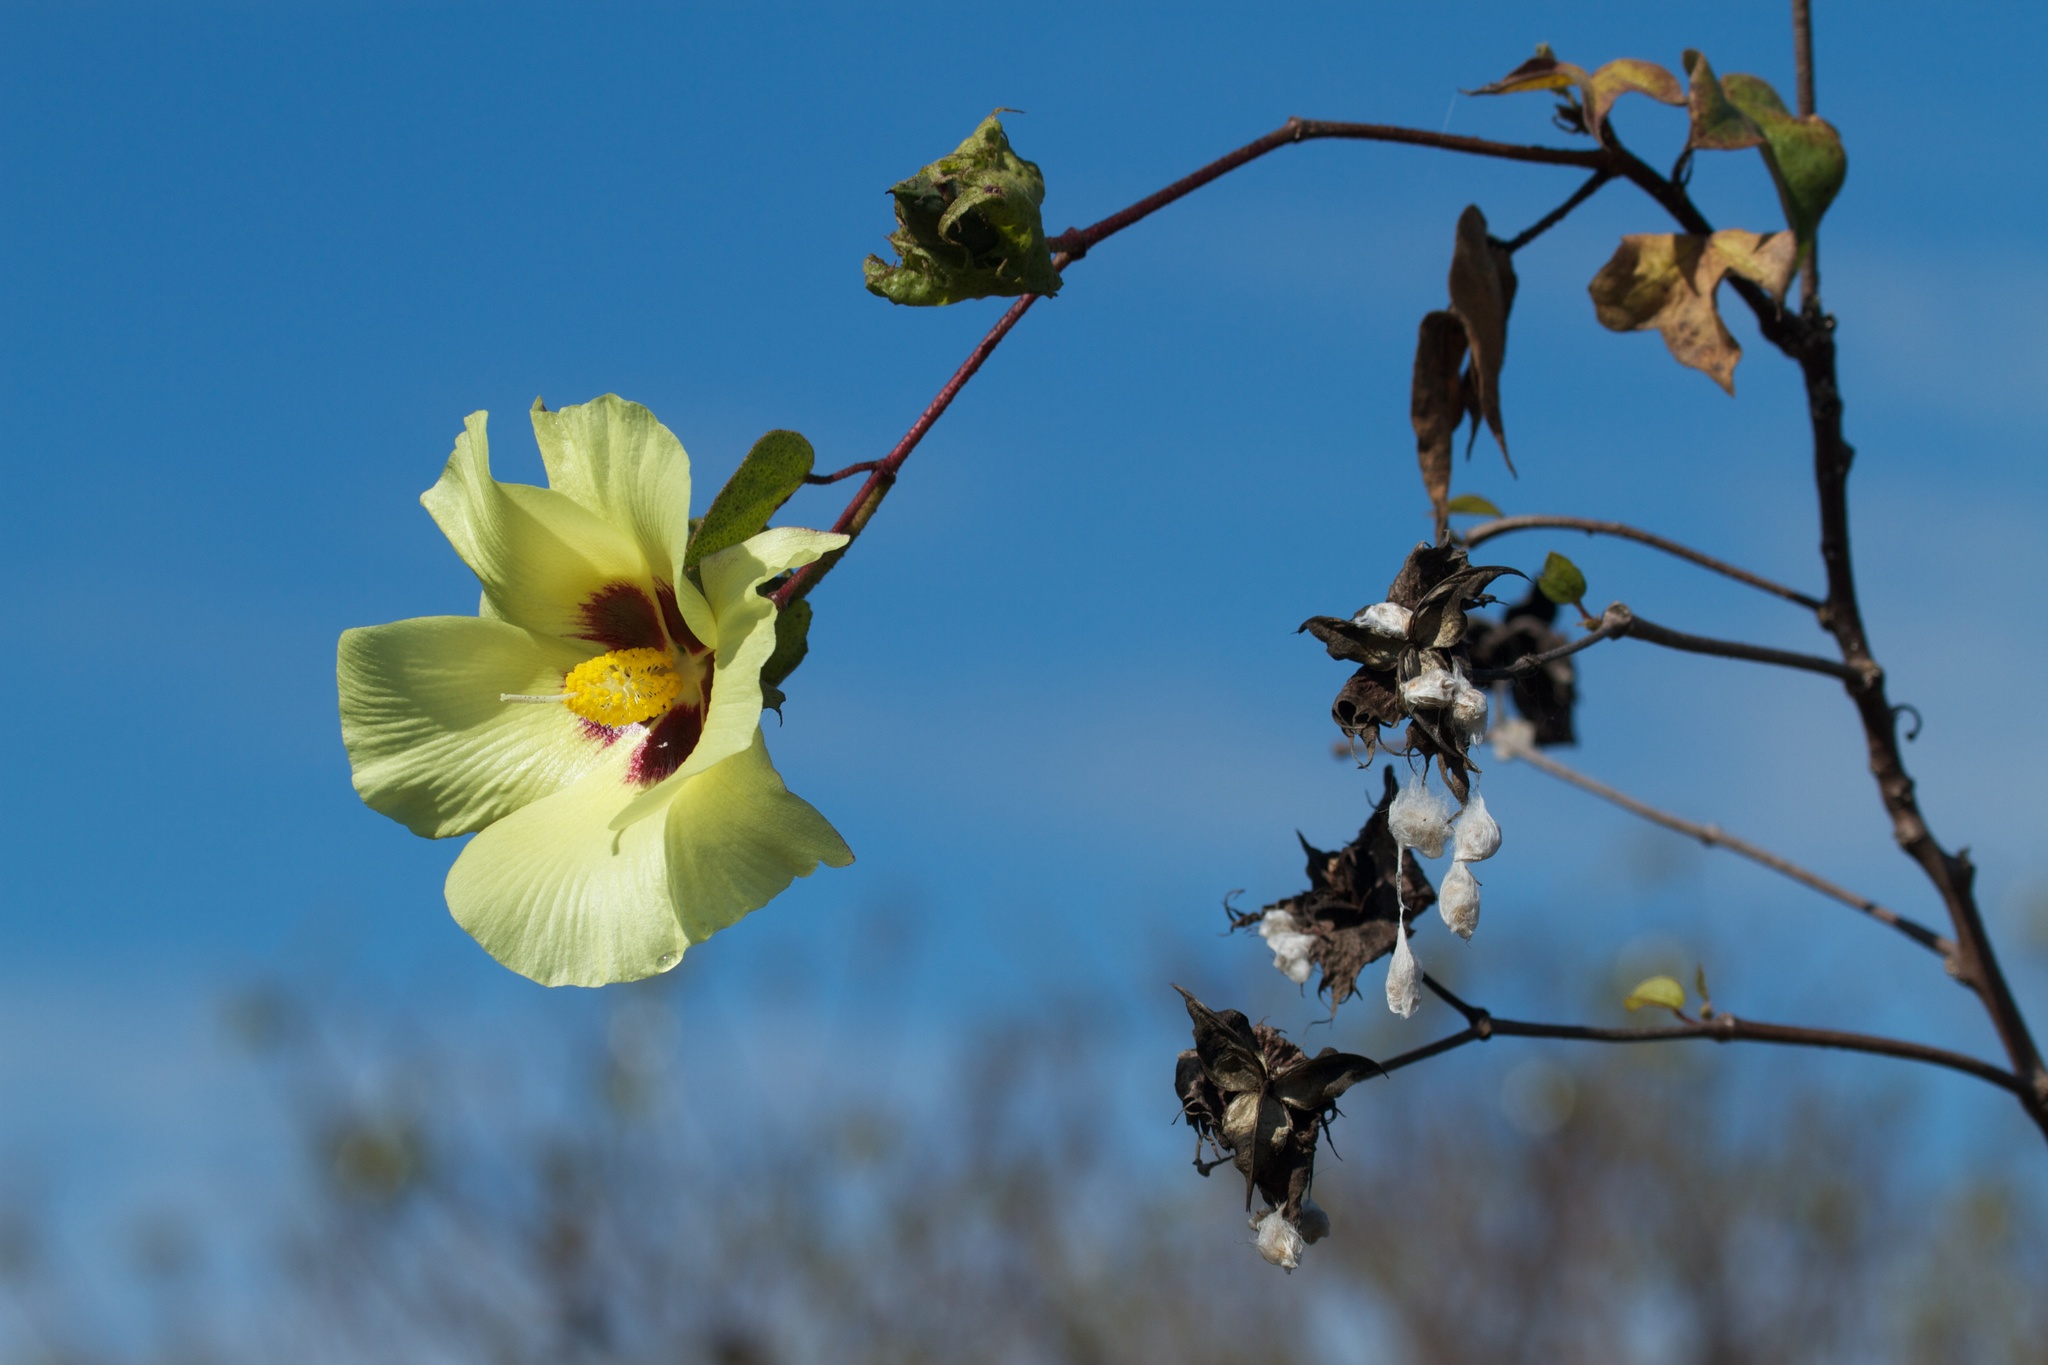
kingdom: Plantae
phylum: Tracheophyta
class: Magnoliopsida
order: Malvales
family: Malvaceae
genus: Gossypium
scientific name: Gossypium darwinii
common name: Darwin's cotton
